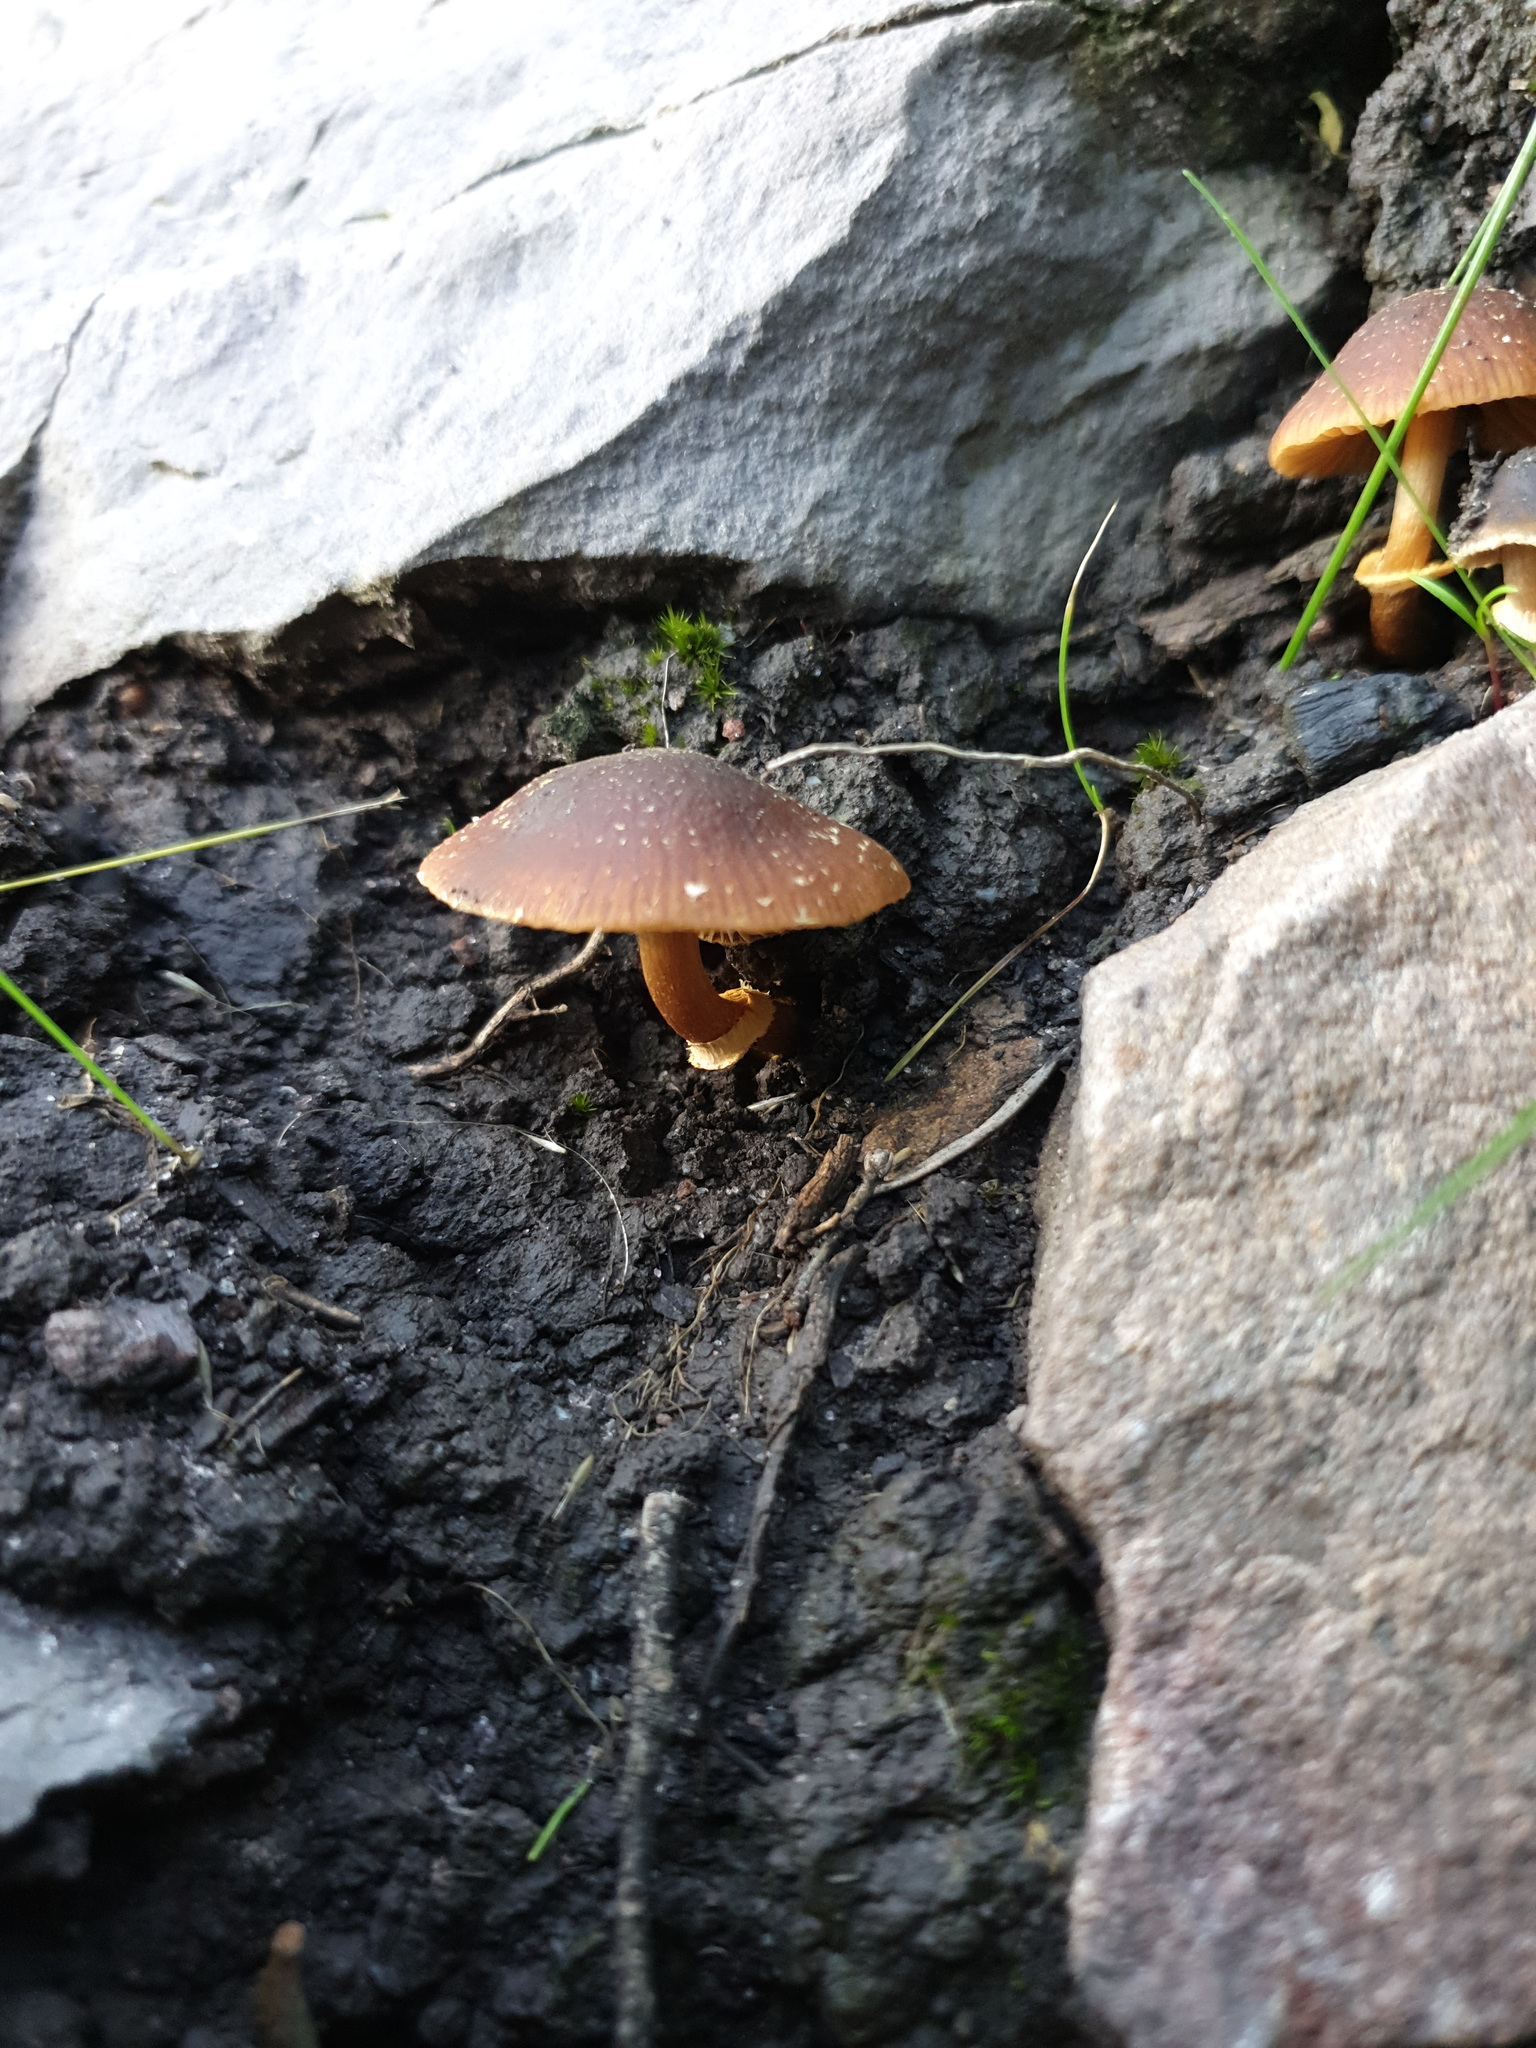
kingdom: Fungi
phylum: Basidiomycota
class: Agaricomycetes
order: Agaricales
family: Bolbitiaceae
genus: Descolea
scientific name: Descolea recedens
